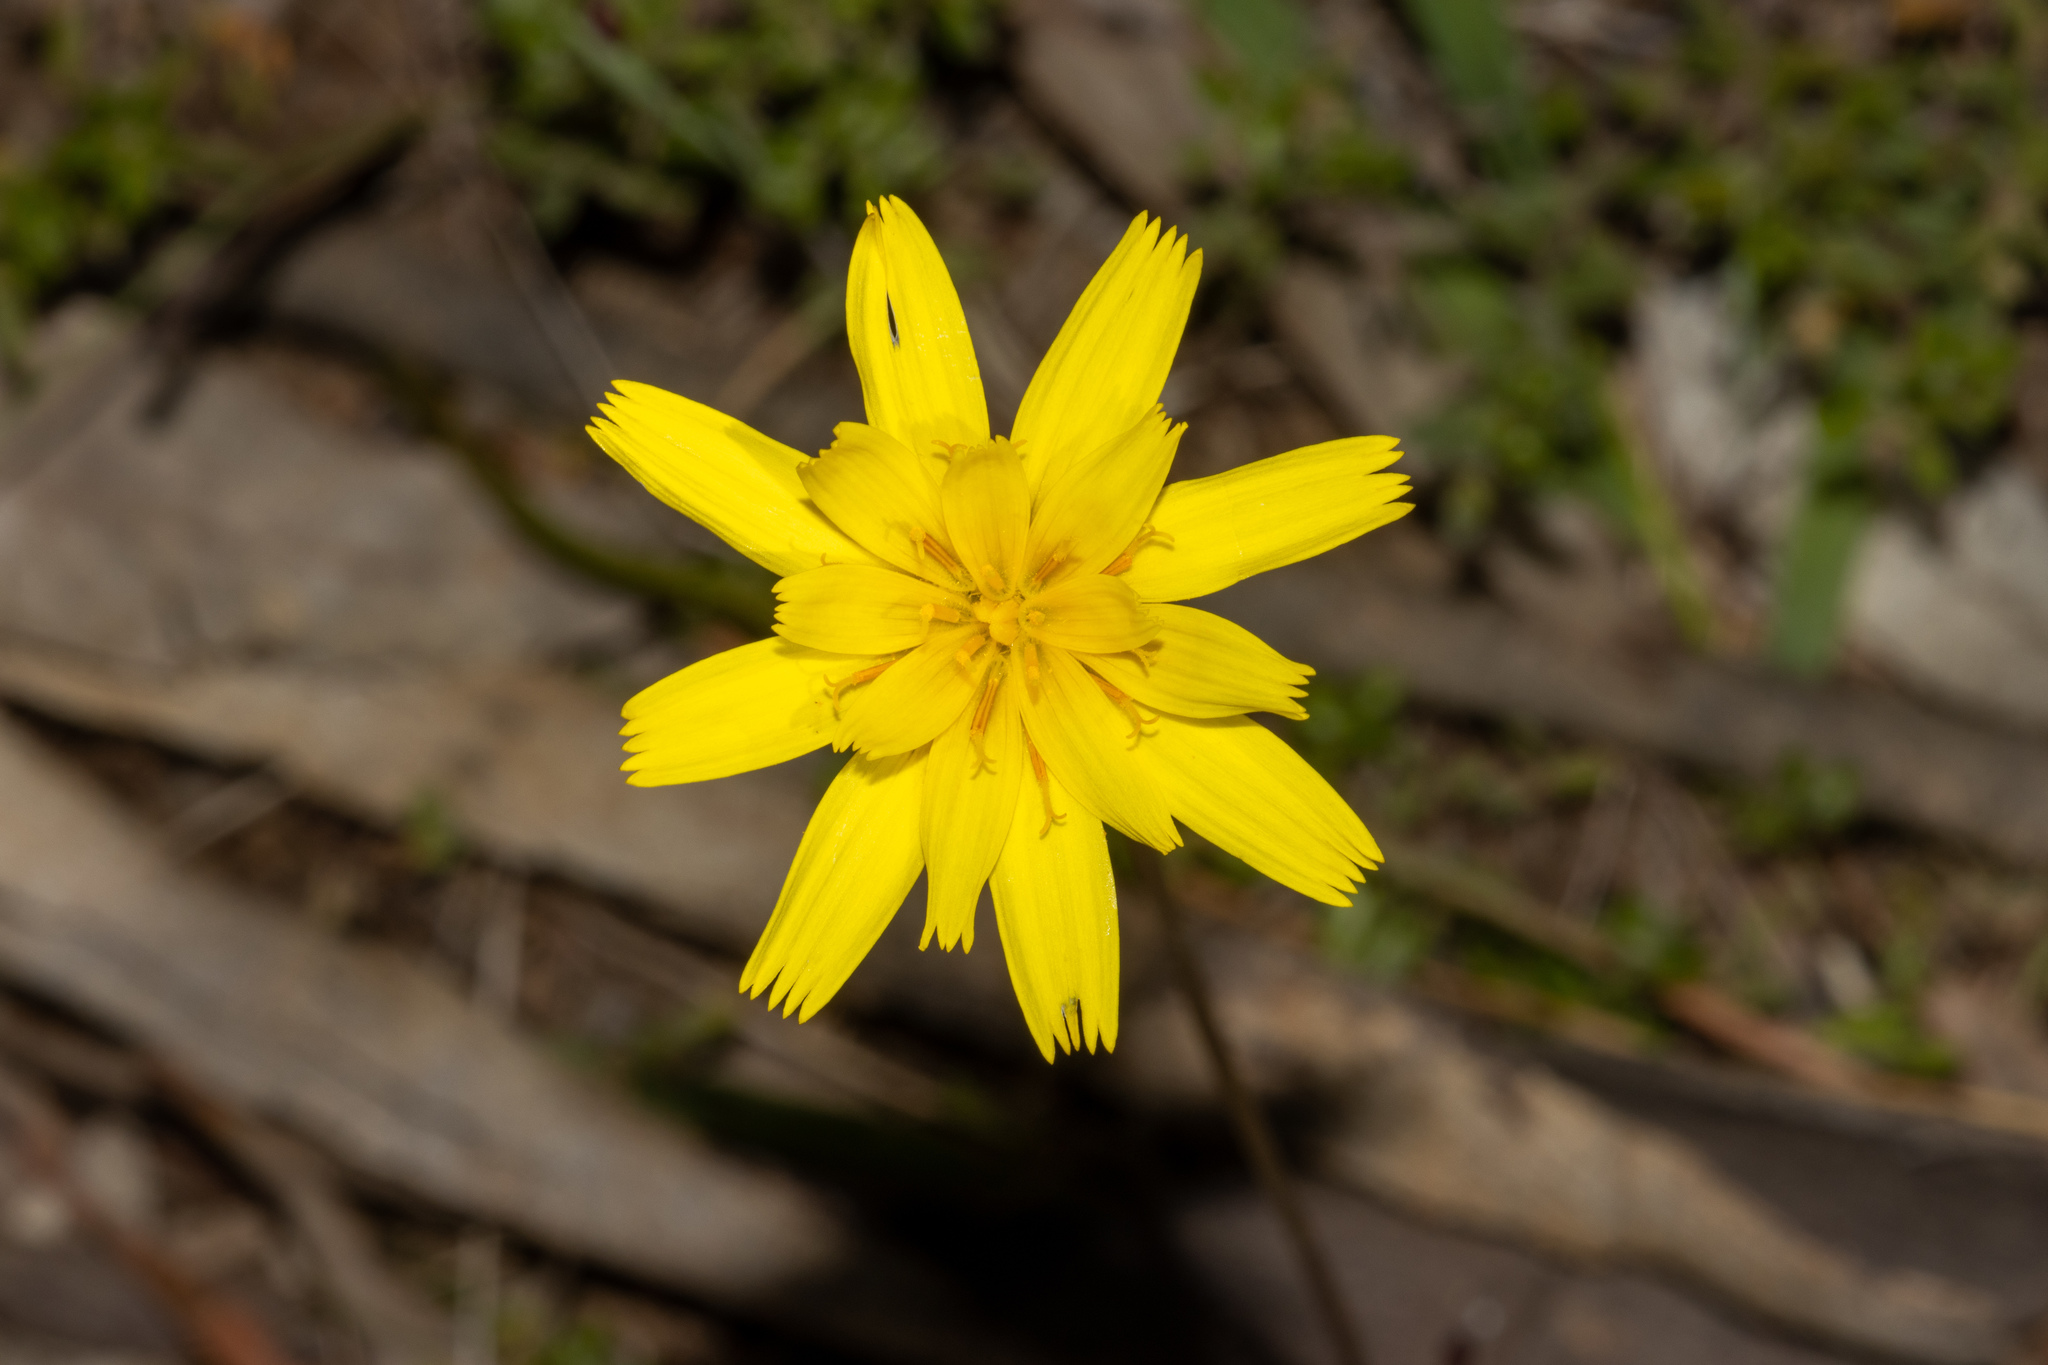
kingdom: Plantae
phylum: Tracheophyta
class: Magnoliopsida
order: Asterales
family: Asteraceae
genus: Microseris
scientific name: Microseris lanceolata
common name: Yam daisy
